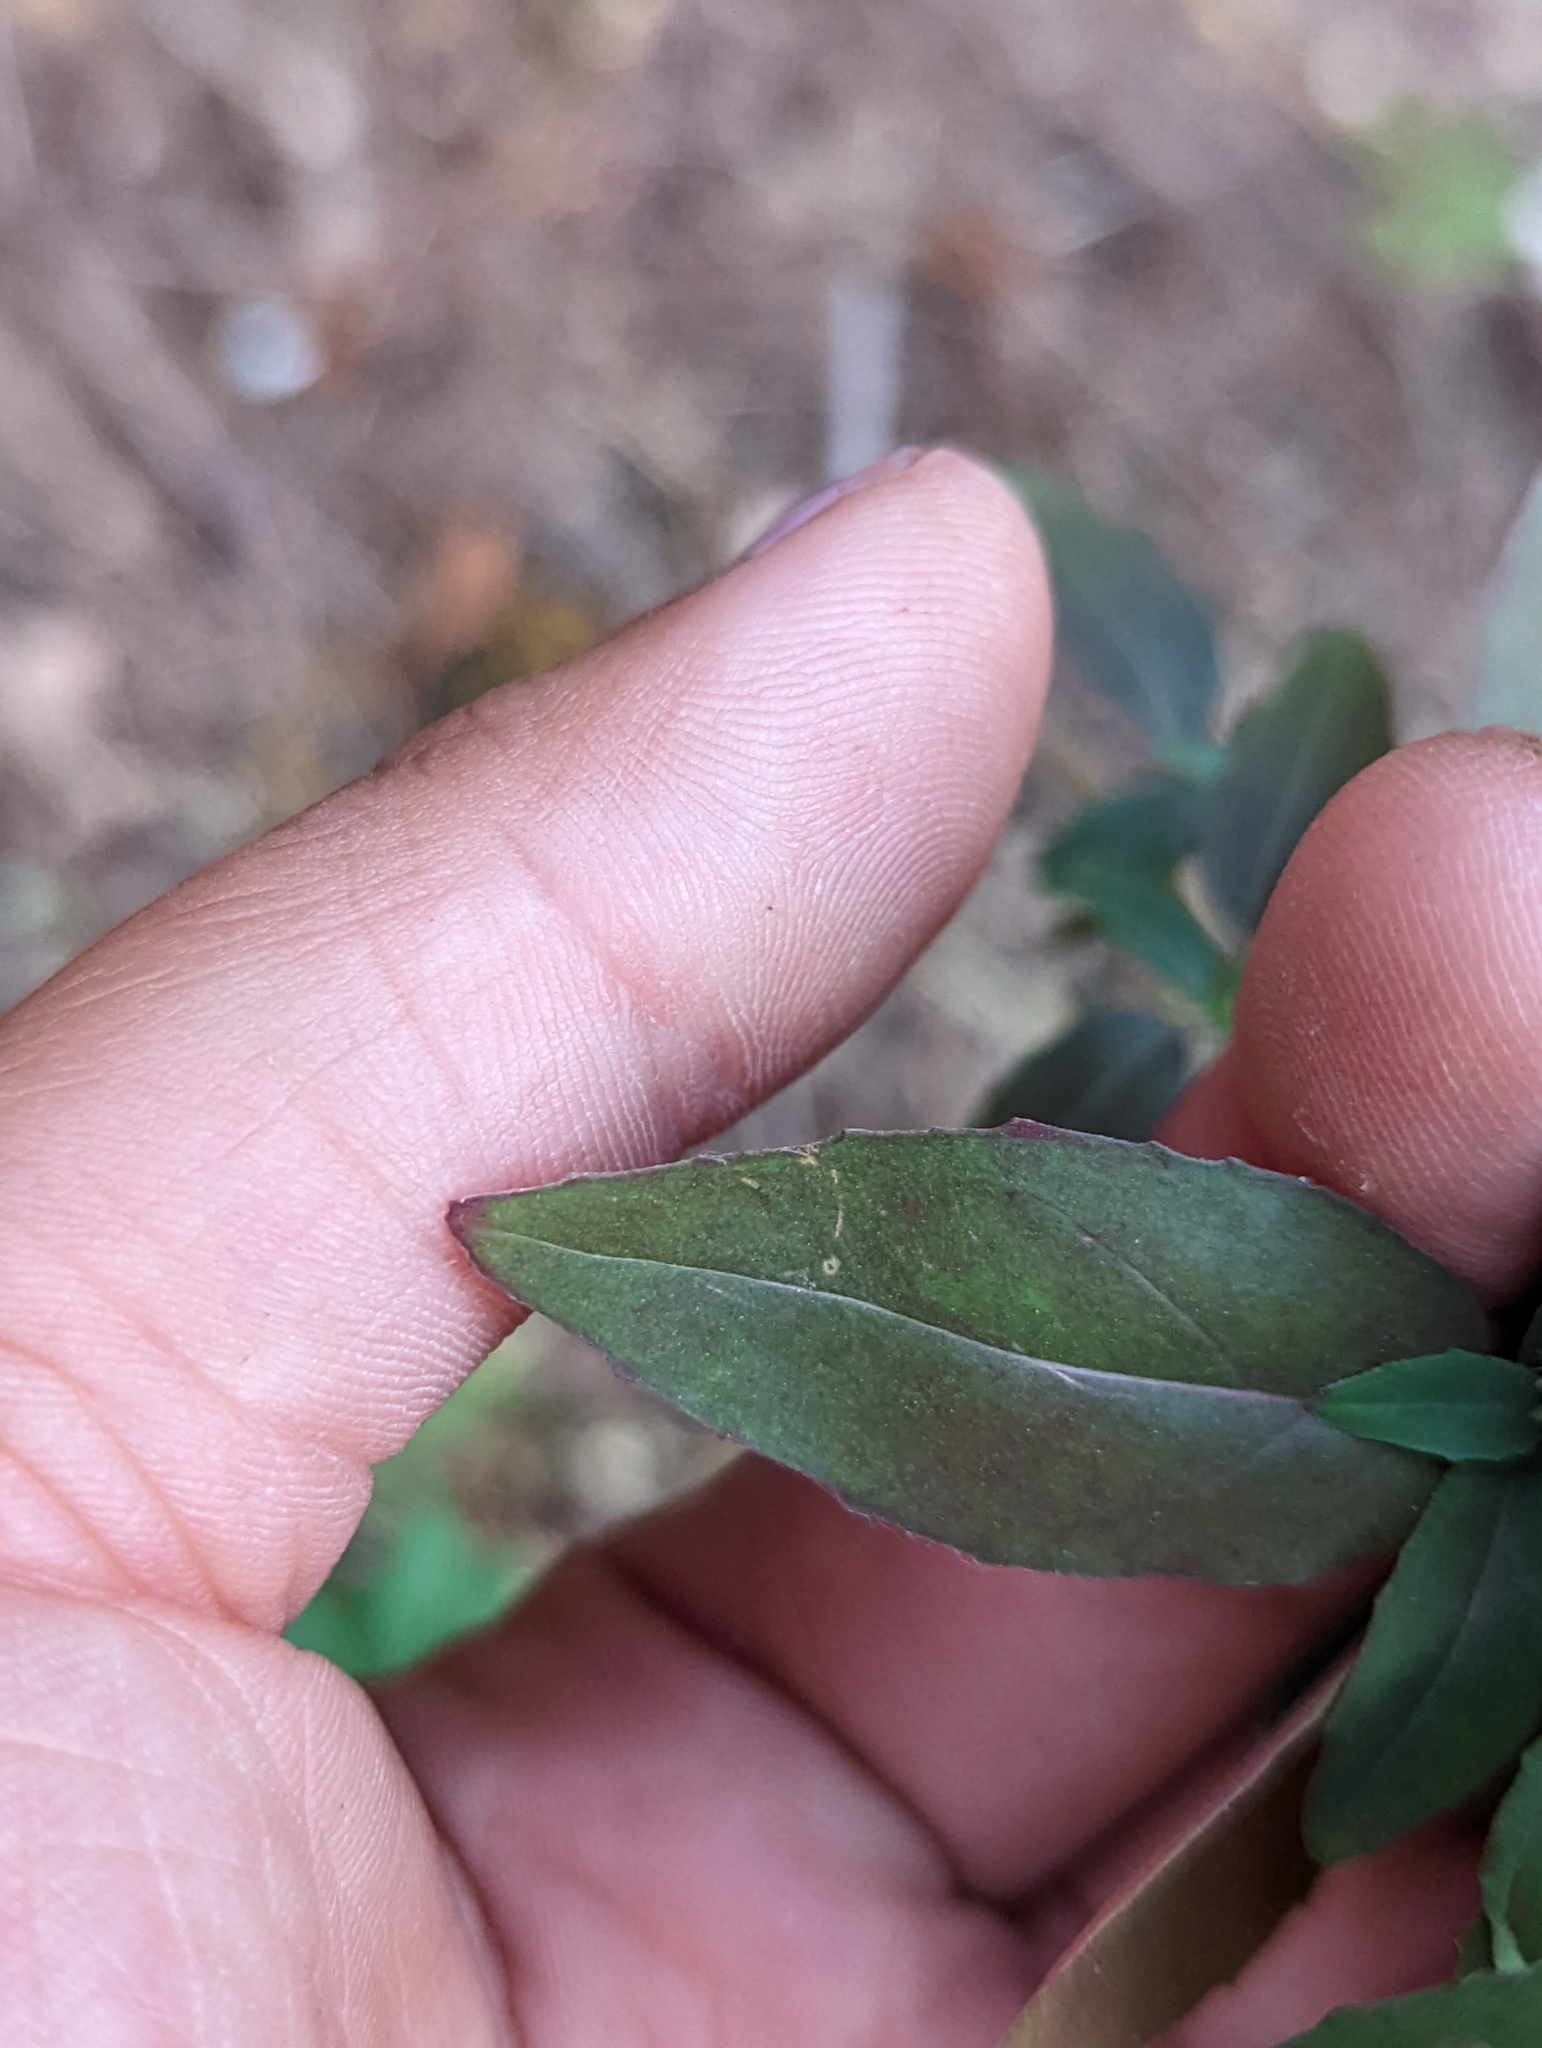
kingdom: Plantae
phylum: Tracheophyta
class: Magnoliopsida
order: Myrtales
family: Onagraceae
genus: Clarkia
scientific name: Clarkia springvillensis
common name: Springville clarkia
